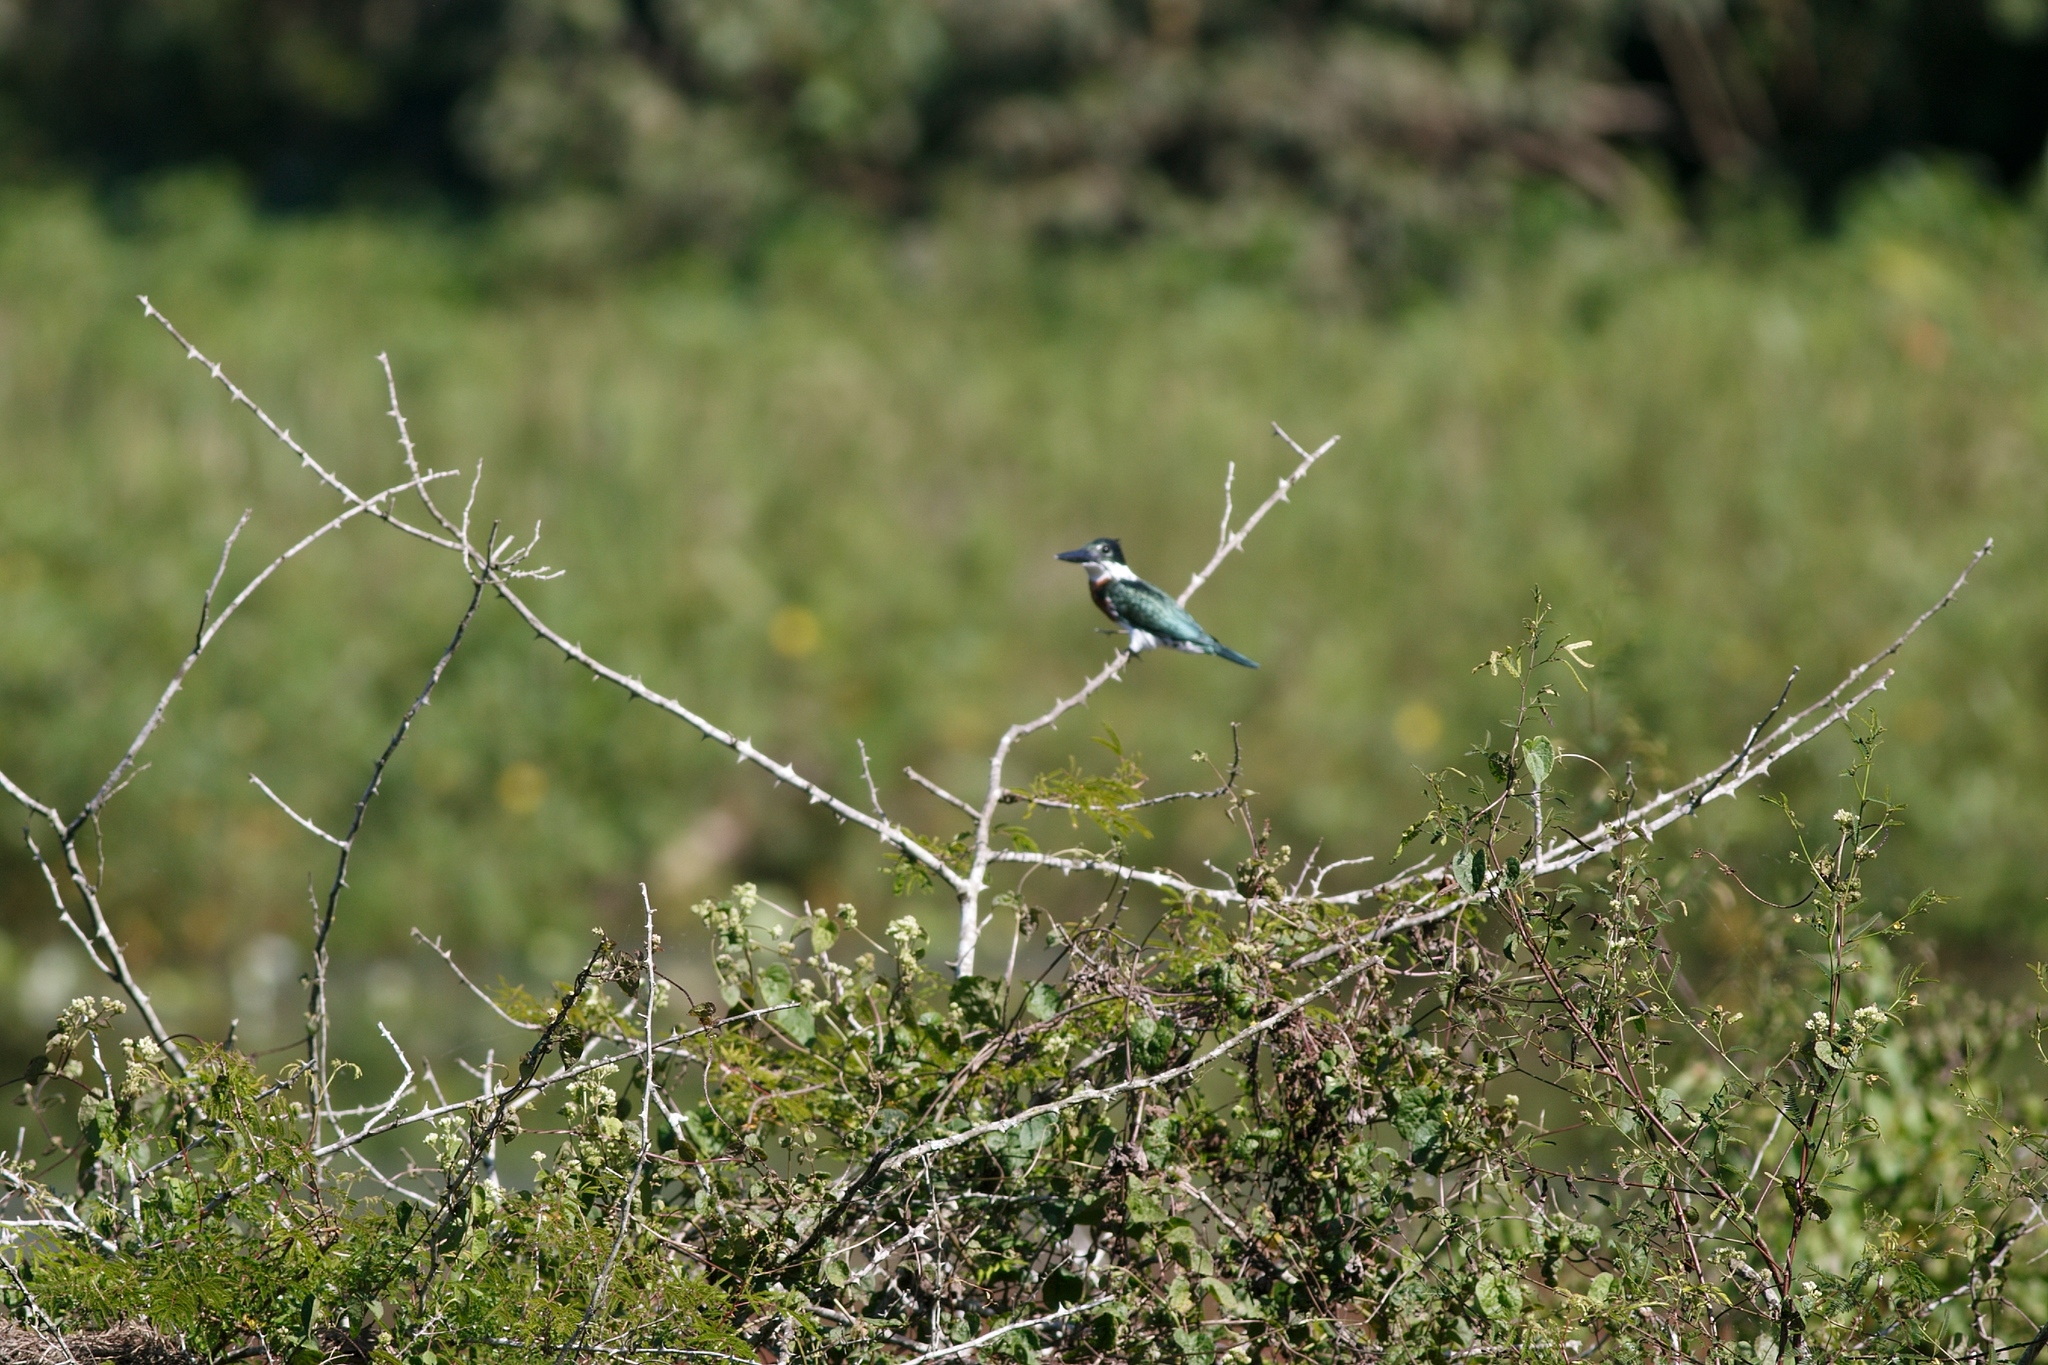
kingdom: Animalia
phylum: Chordata
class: Aves
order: Coraciiformes
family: Alcedinidae
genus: Chloroceryle
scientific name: Chloroceryle amazona
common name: Amazon kingfisher
